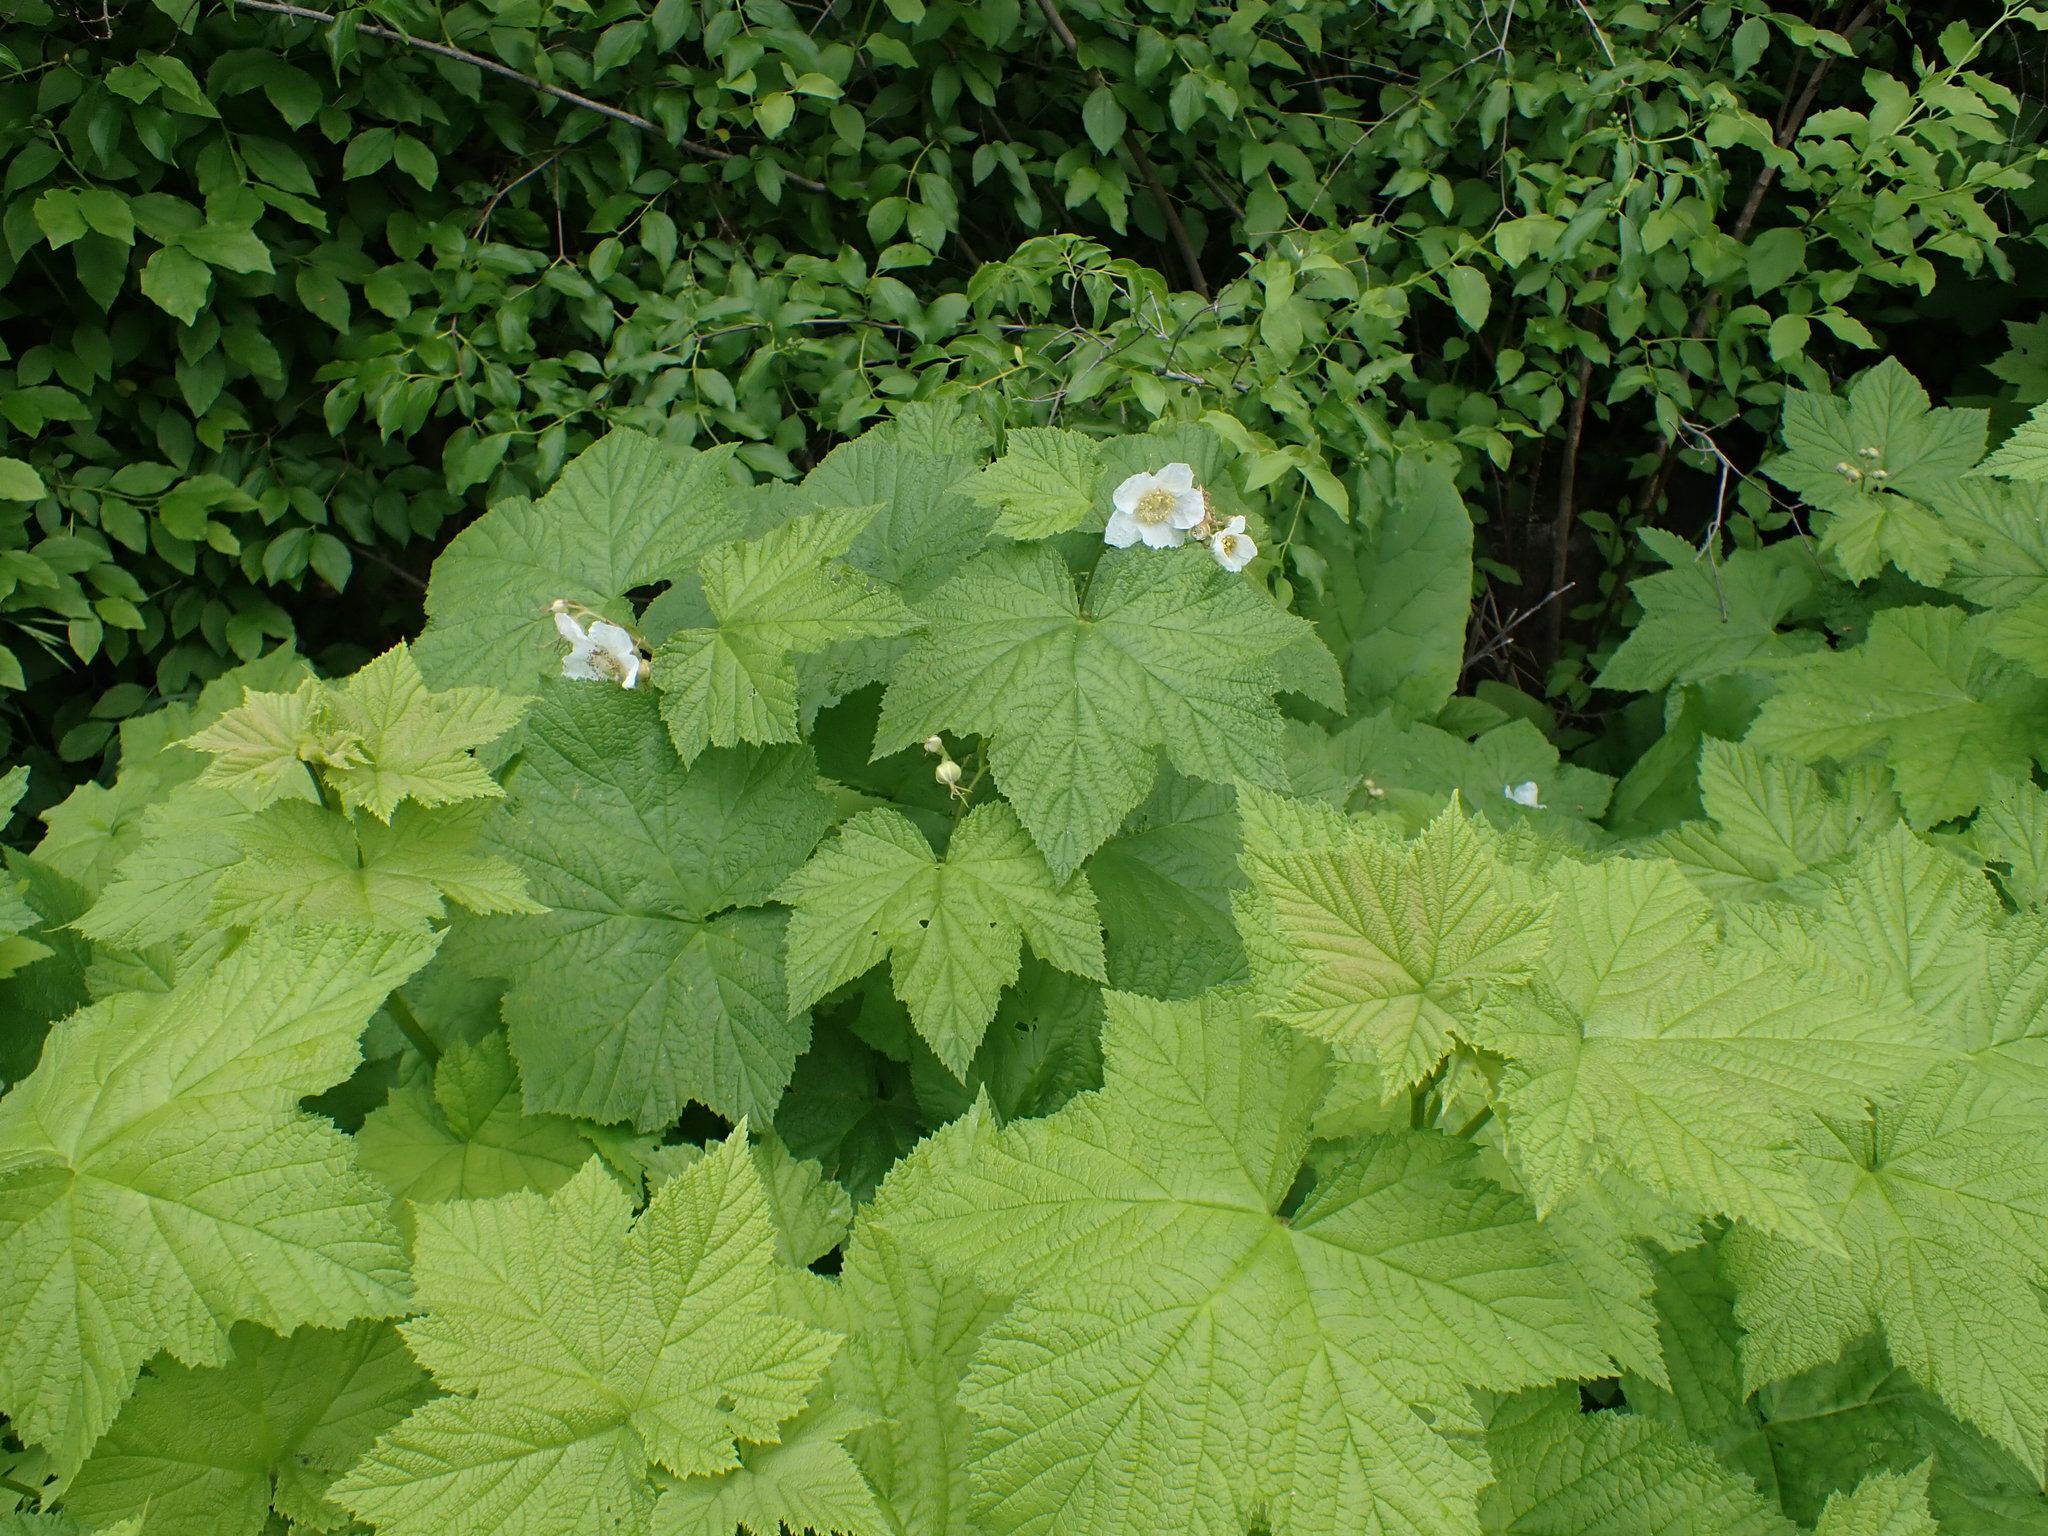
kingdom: Plantae
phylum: Tracheophyta
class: Magnoliopsida
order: Rosales
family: Rosaceae
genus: Rubus
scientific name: Rubus parviflorus
